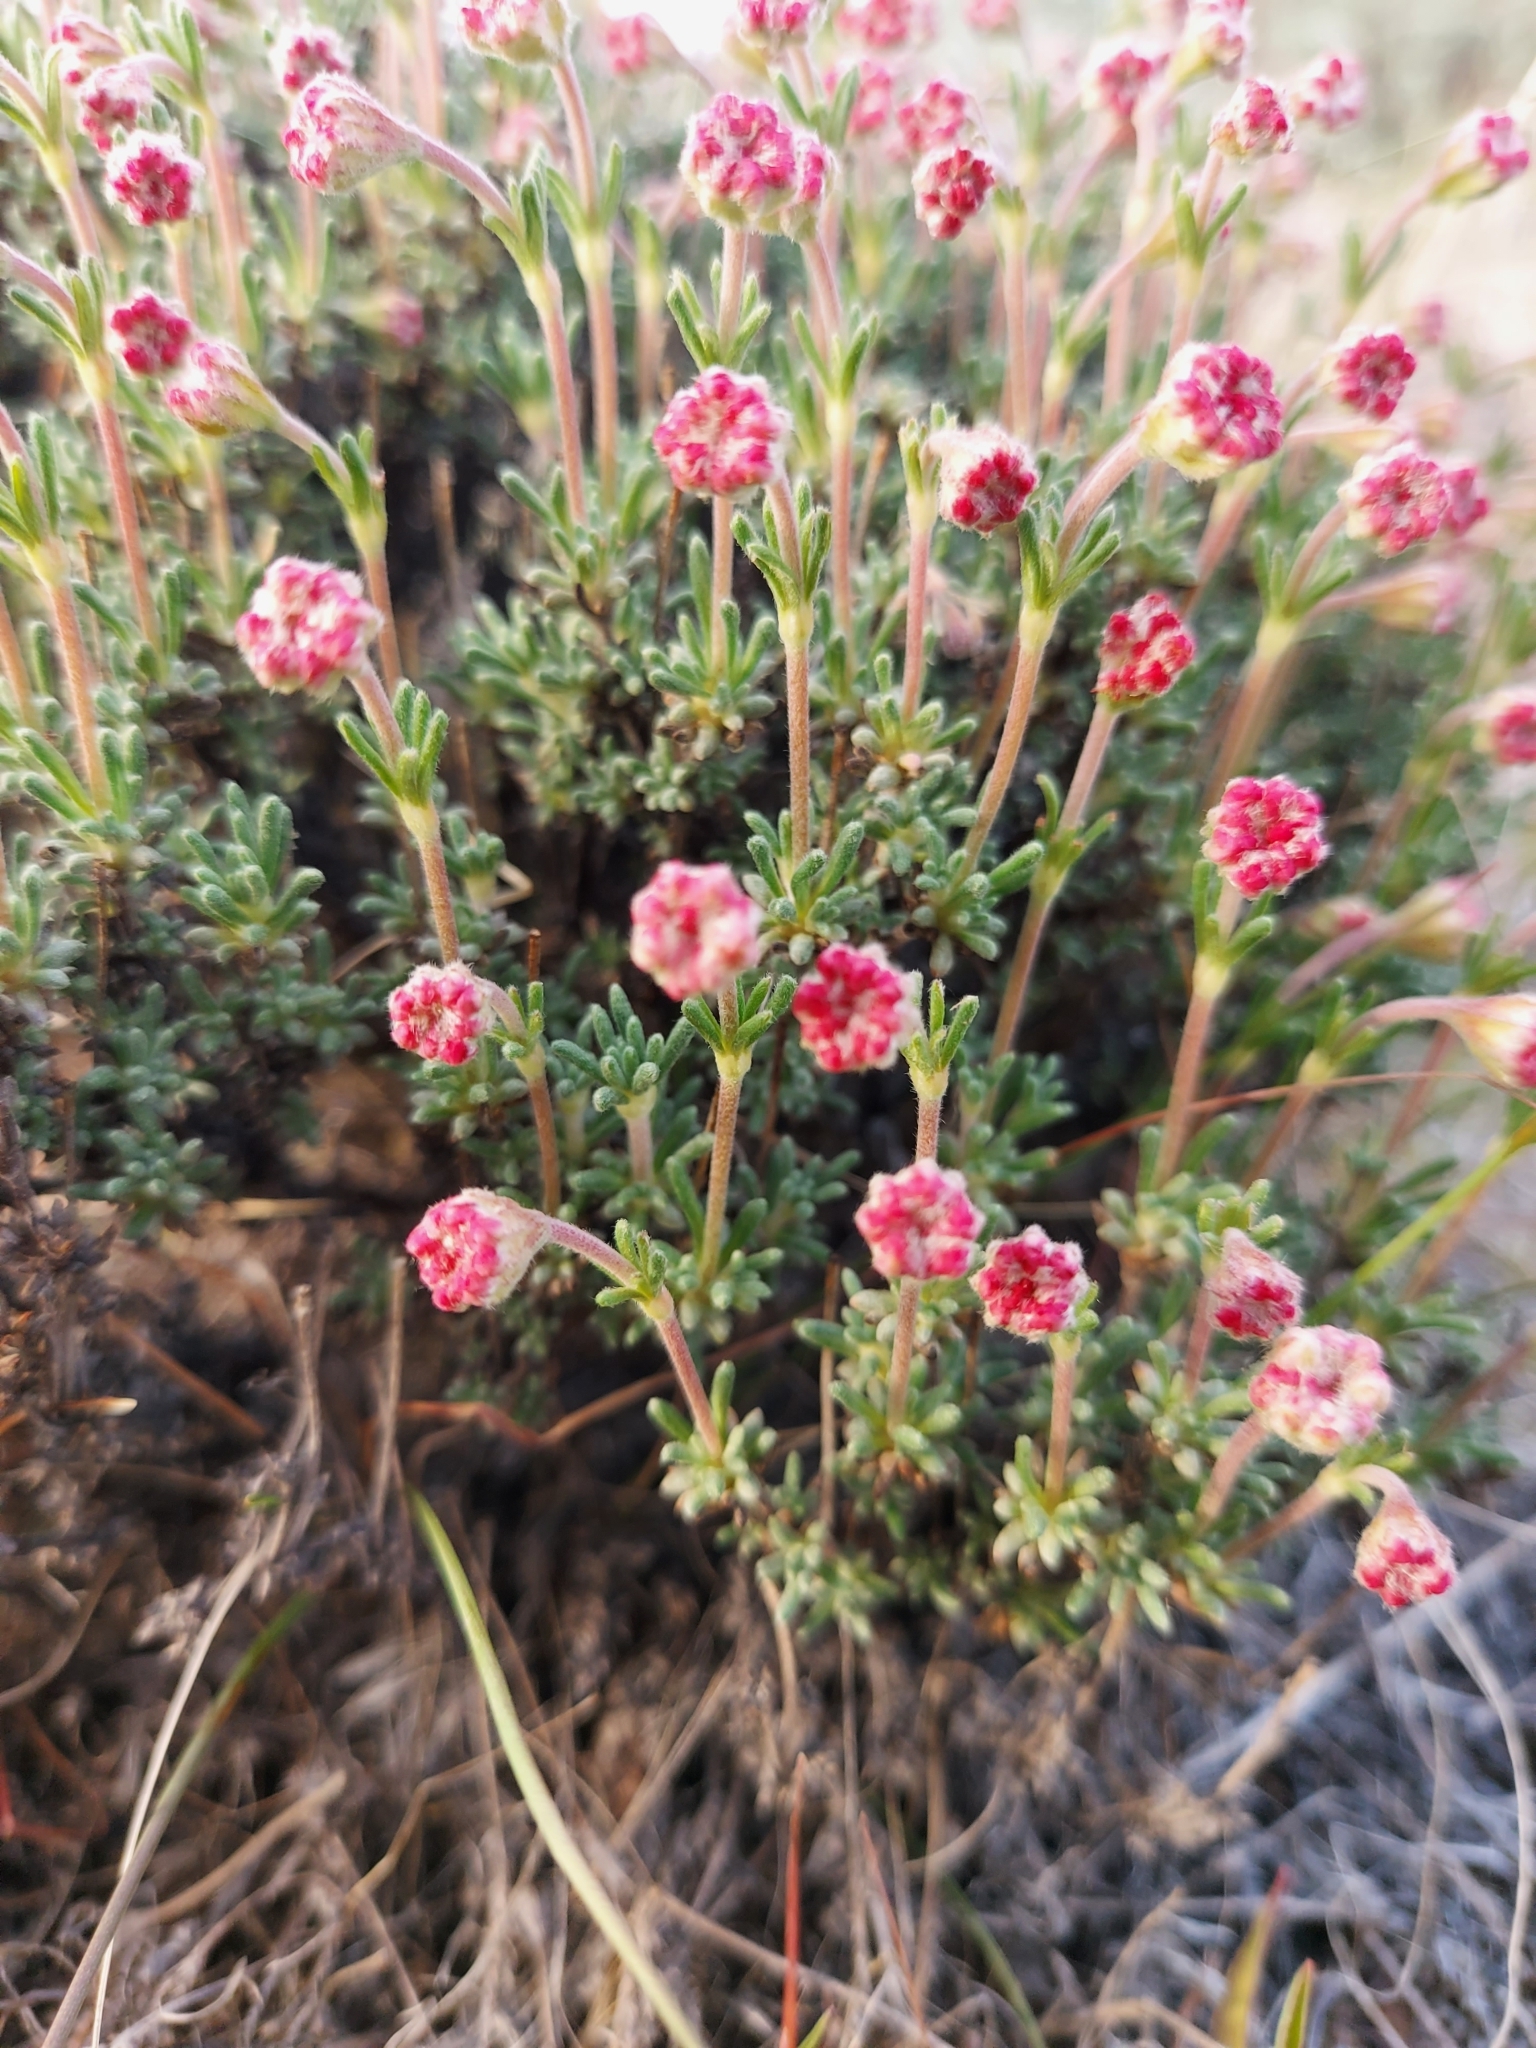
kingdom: Plantae
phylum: Tracheophyta
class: Magnoliopsida
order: Caryophyllales
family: Polygonaceae
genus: Eriogonum
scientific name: Eriogonum thymoides
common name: Thyme-leaf wild buckwheat
